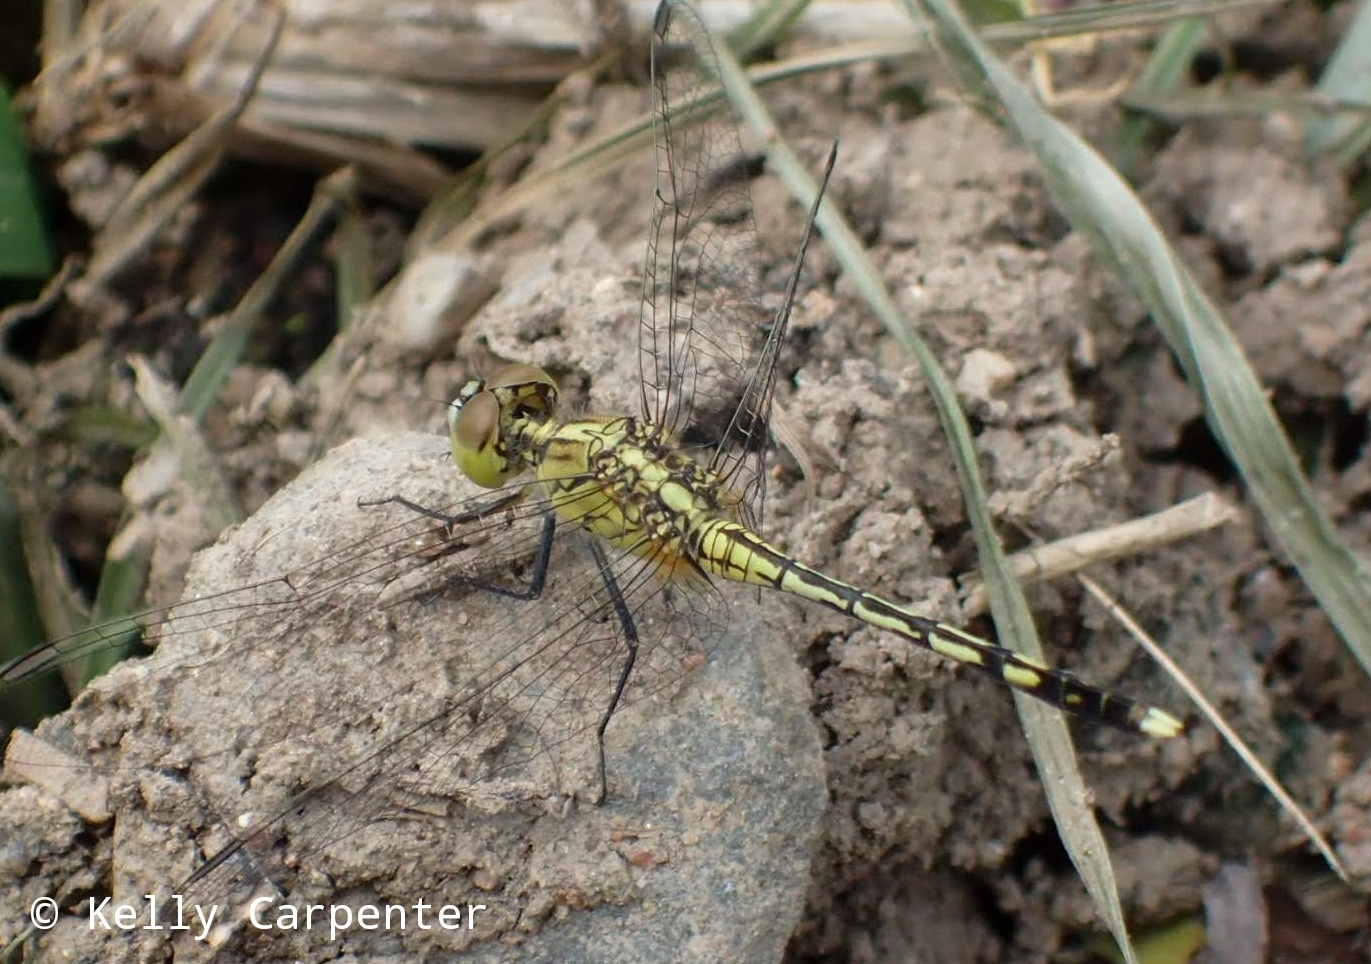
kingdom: Animalia
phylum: Arthropoda
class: Insecta
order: Odonata
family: Libellulidae
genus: Diplacodes
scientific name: Diplacodes trivialis
